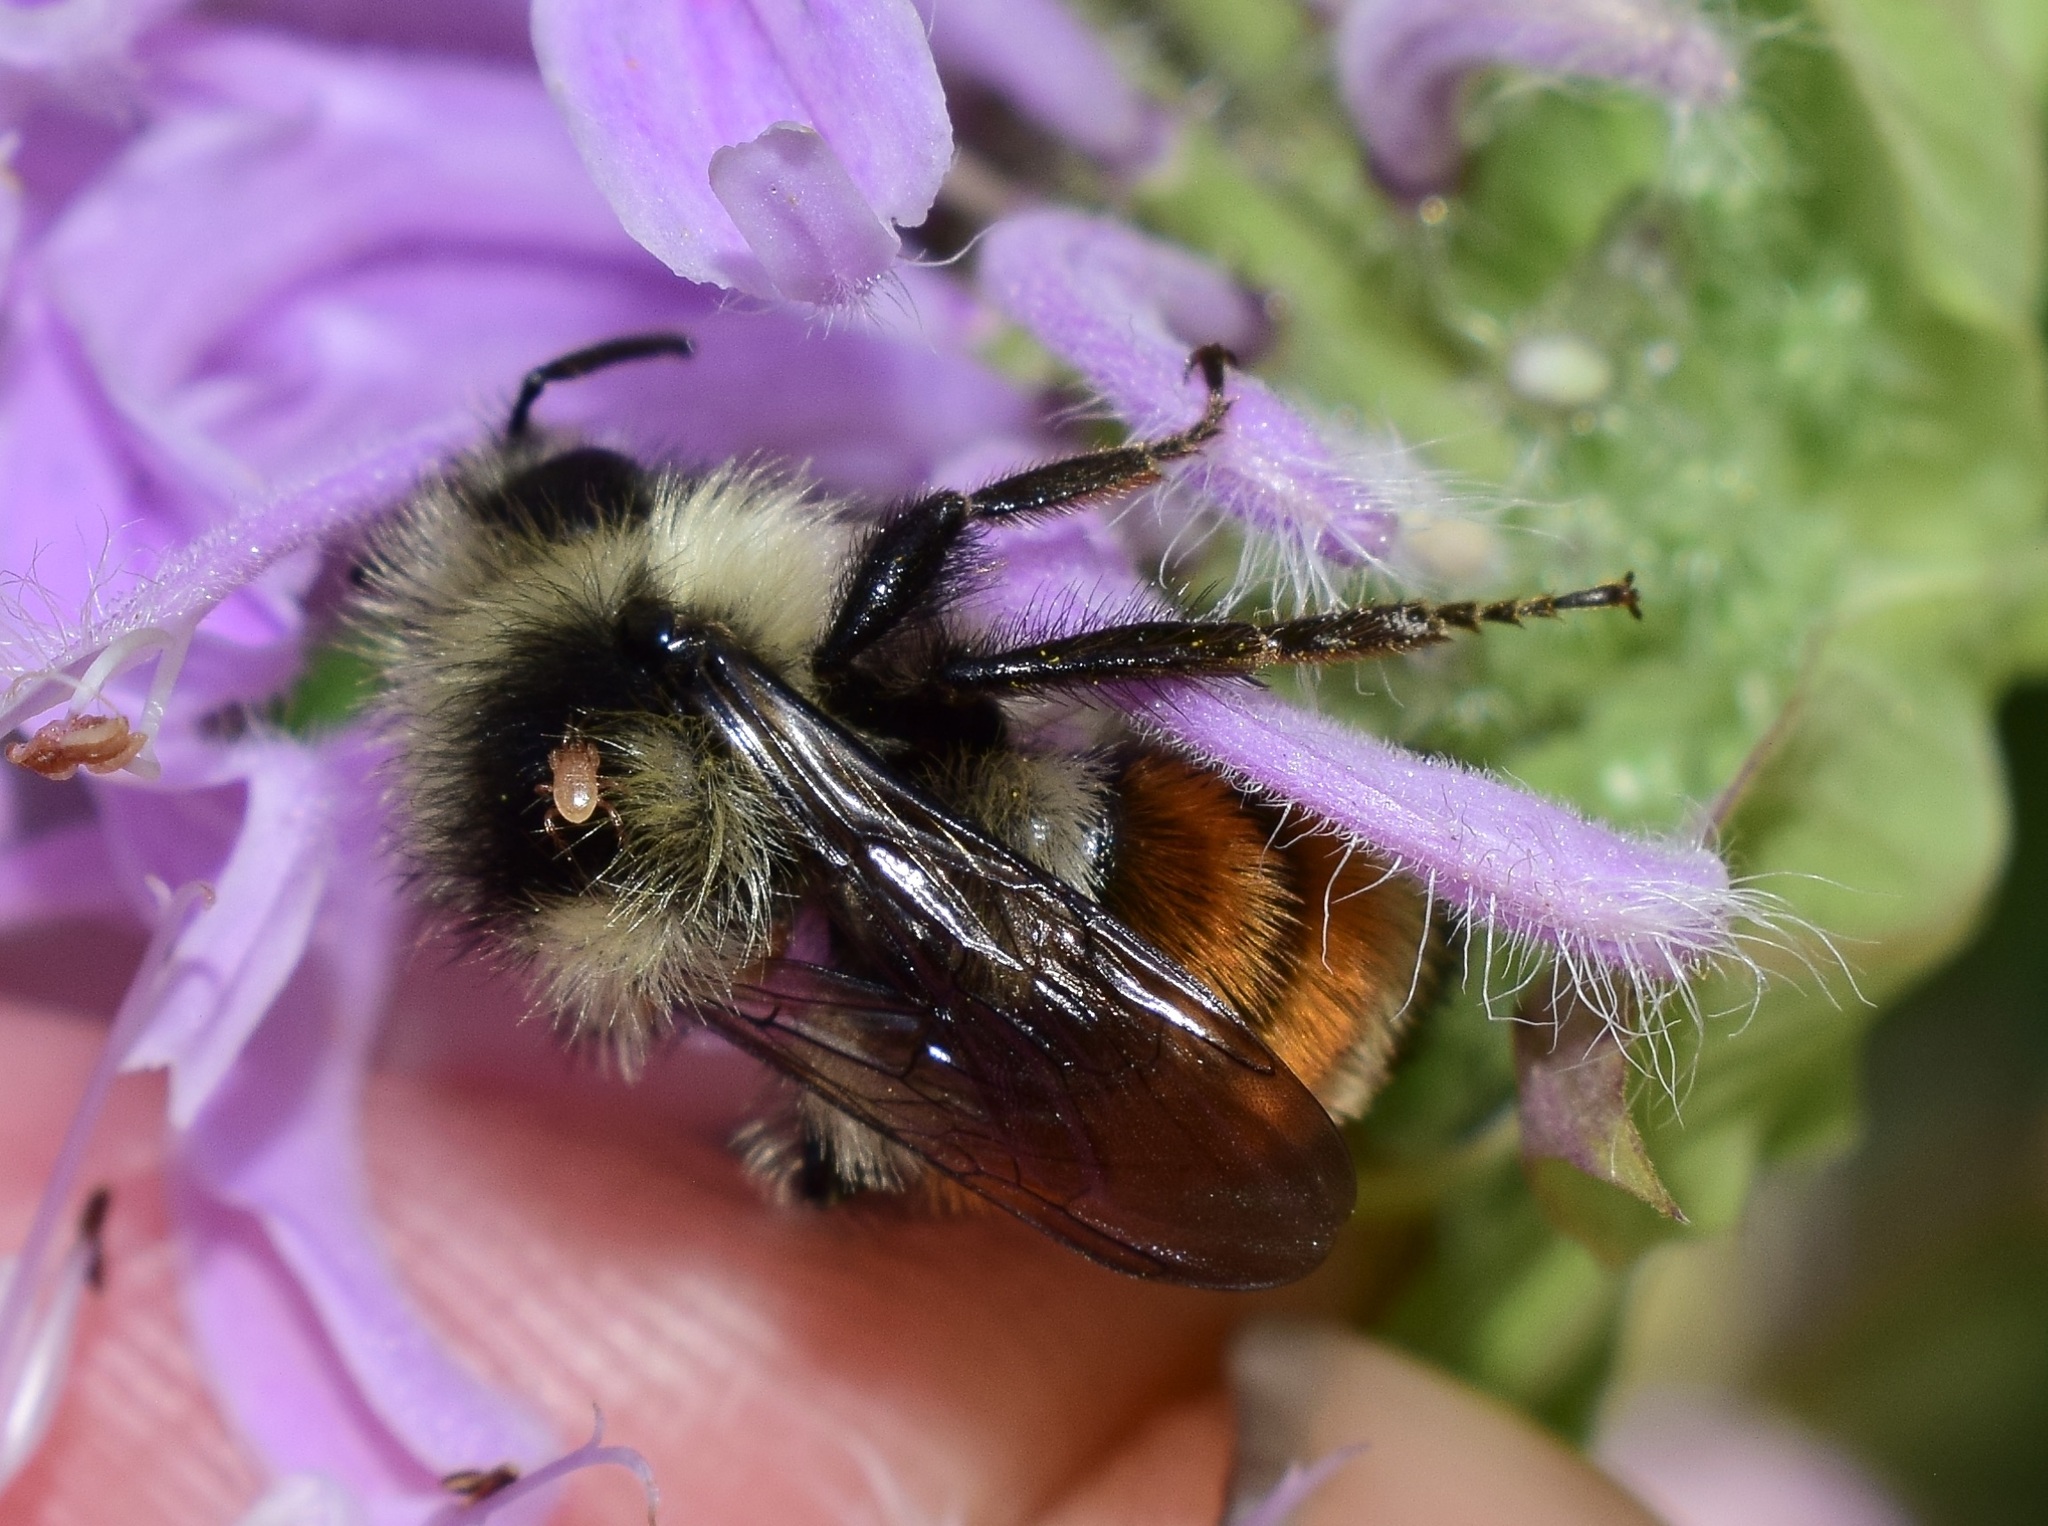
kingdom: Animalia
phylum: Arthropoda
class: Insecta
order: Hymenoptera
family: Apidae
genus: Bombus
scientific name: Bombus ternarius
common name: Tri-colored bumble bee
